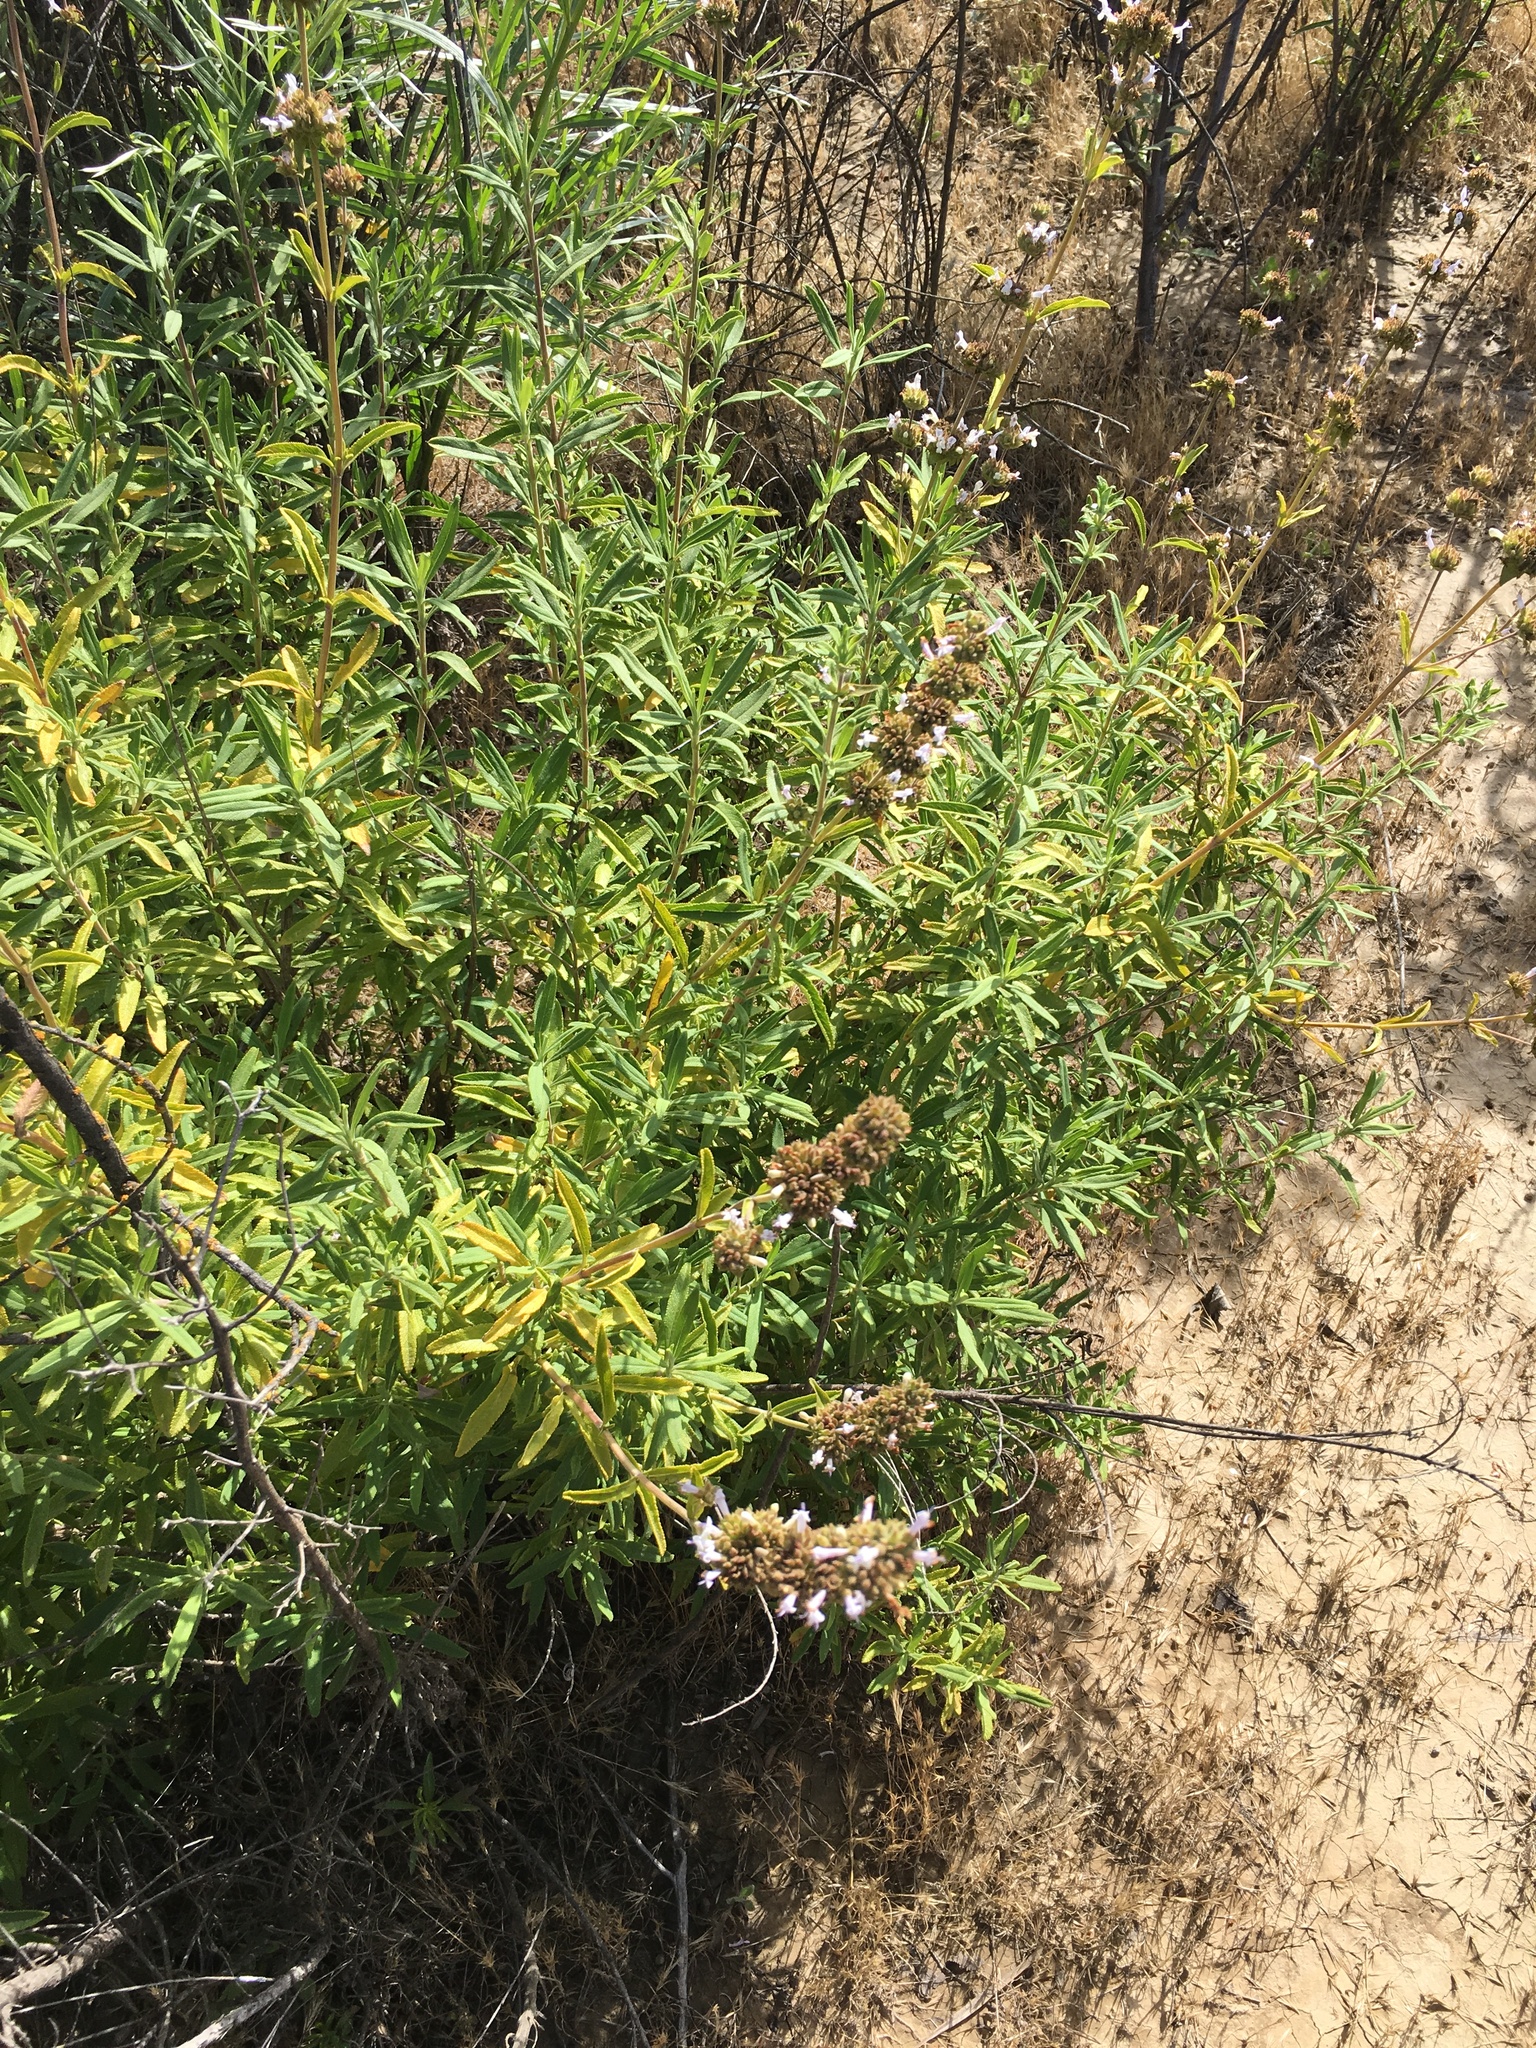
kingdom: Plantae
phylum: Tracheophyta
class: Magnoliopsida
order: Lamiales
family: Lamiaceae
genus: Salvia
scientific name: Salvia mellifera
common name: Black sage
